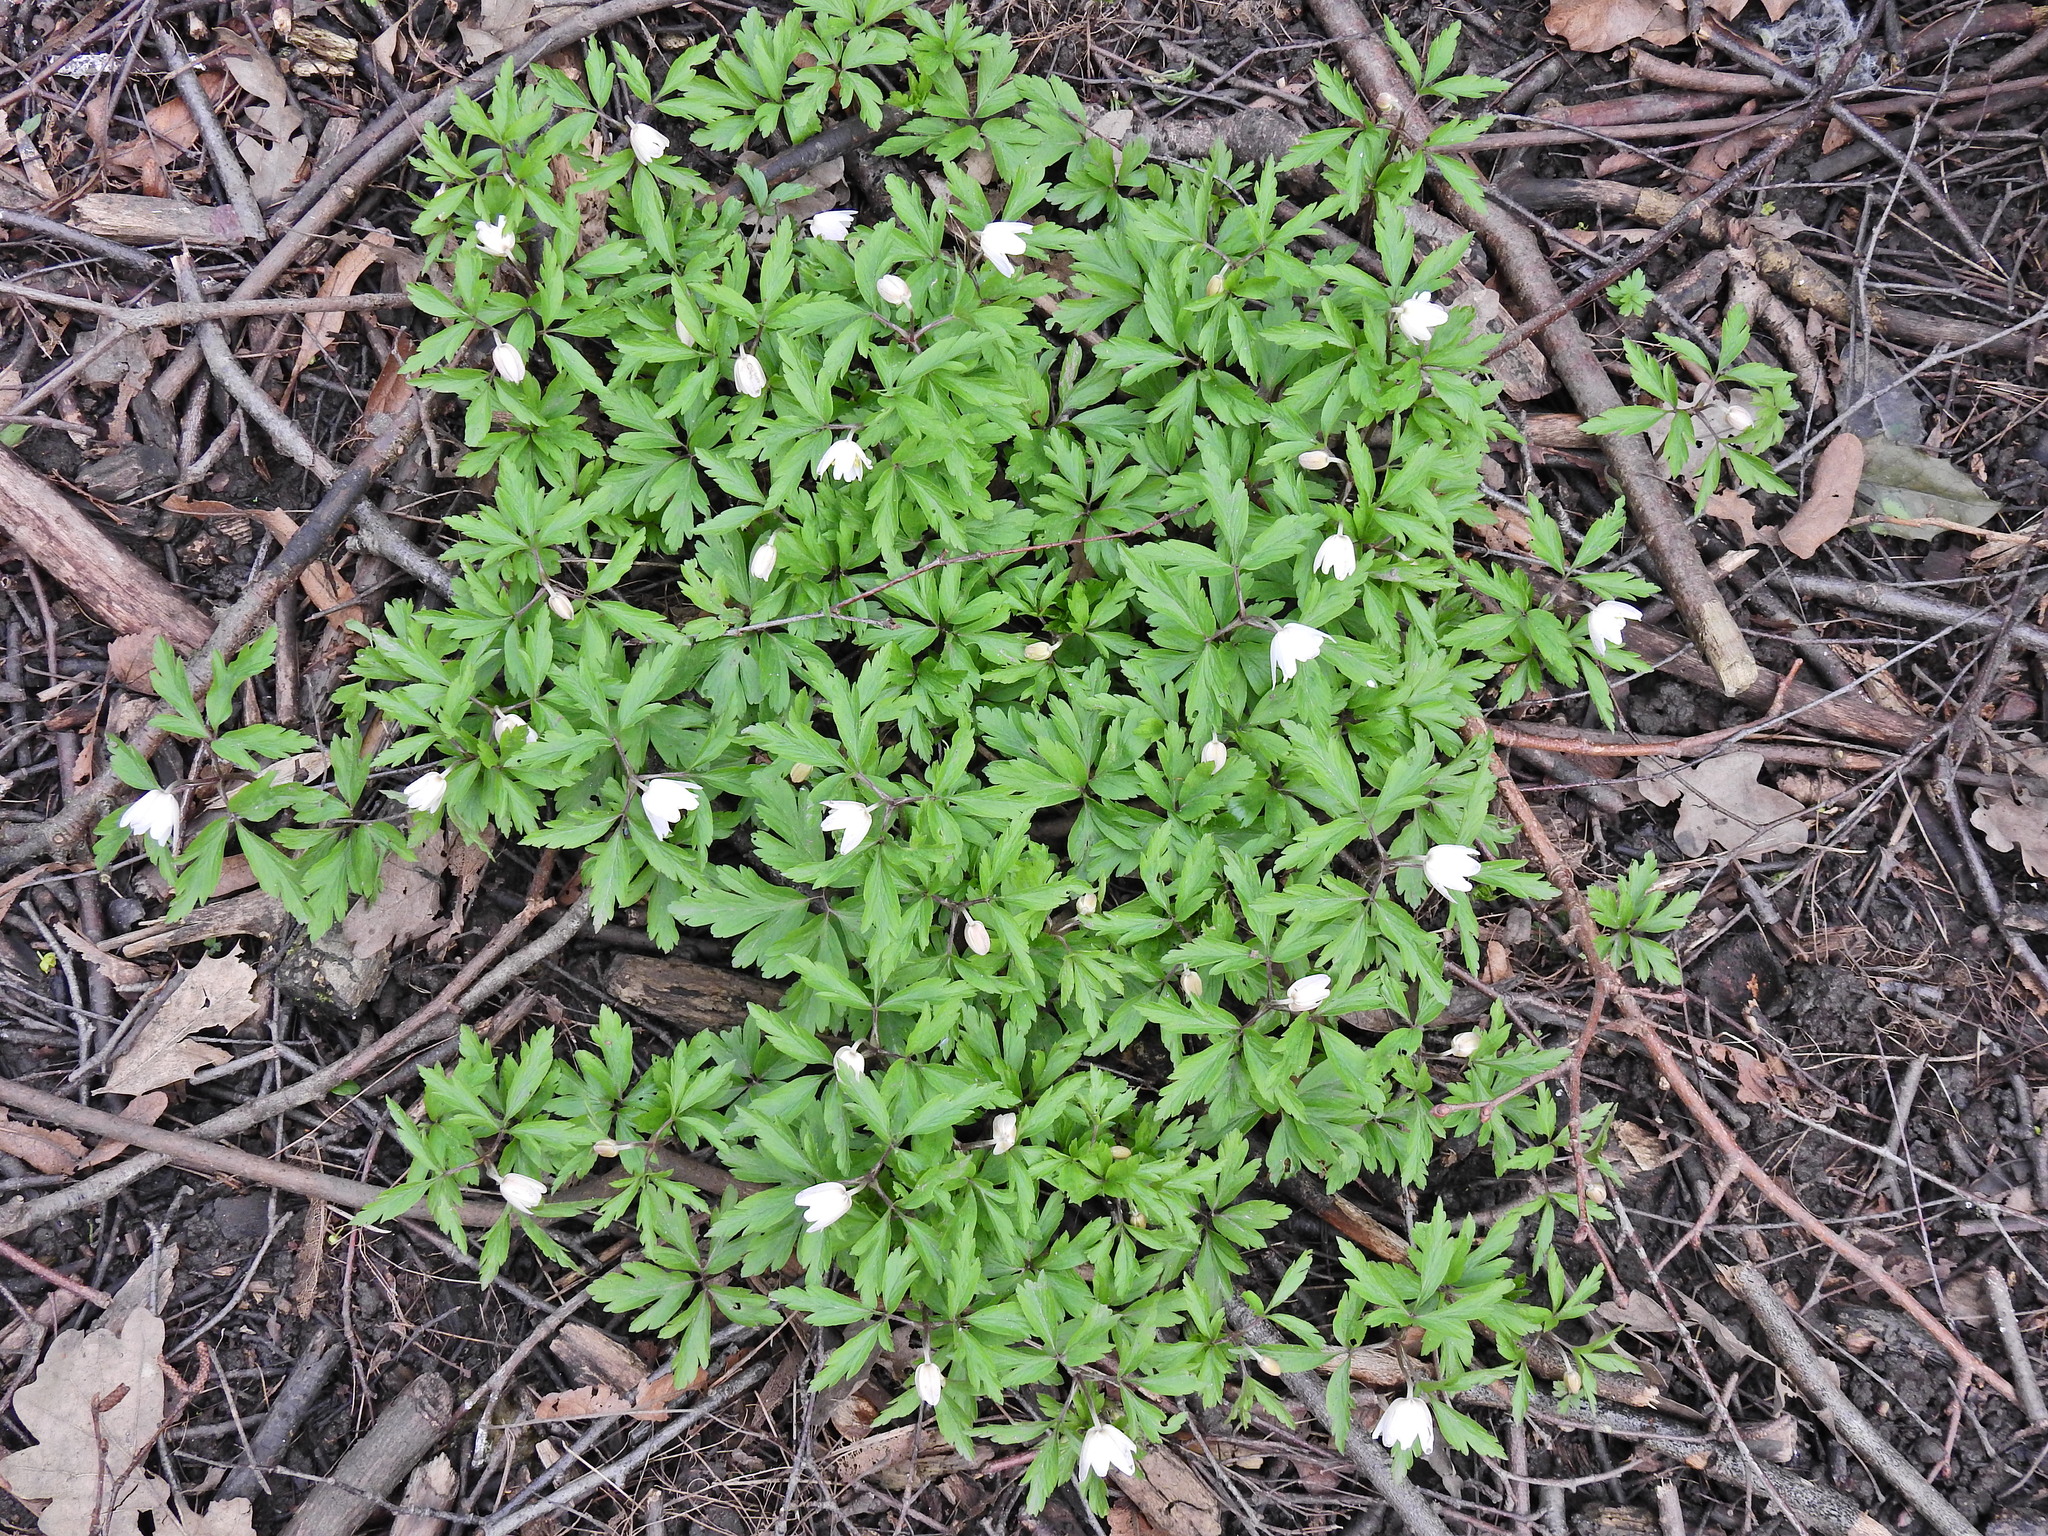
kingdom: Plantae
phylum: Tracheophyta
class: Magnoliopsida
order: Ranunculales
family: Ranunculaceae
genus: Anemone
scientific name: Anemone nemorosa
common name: Wood anemone
